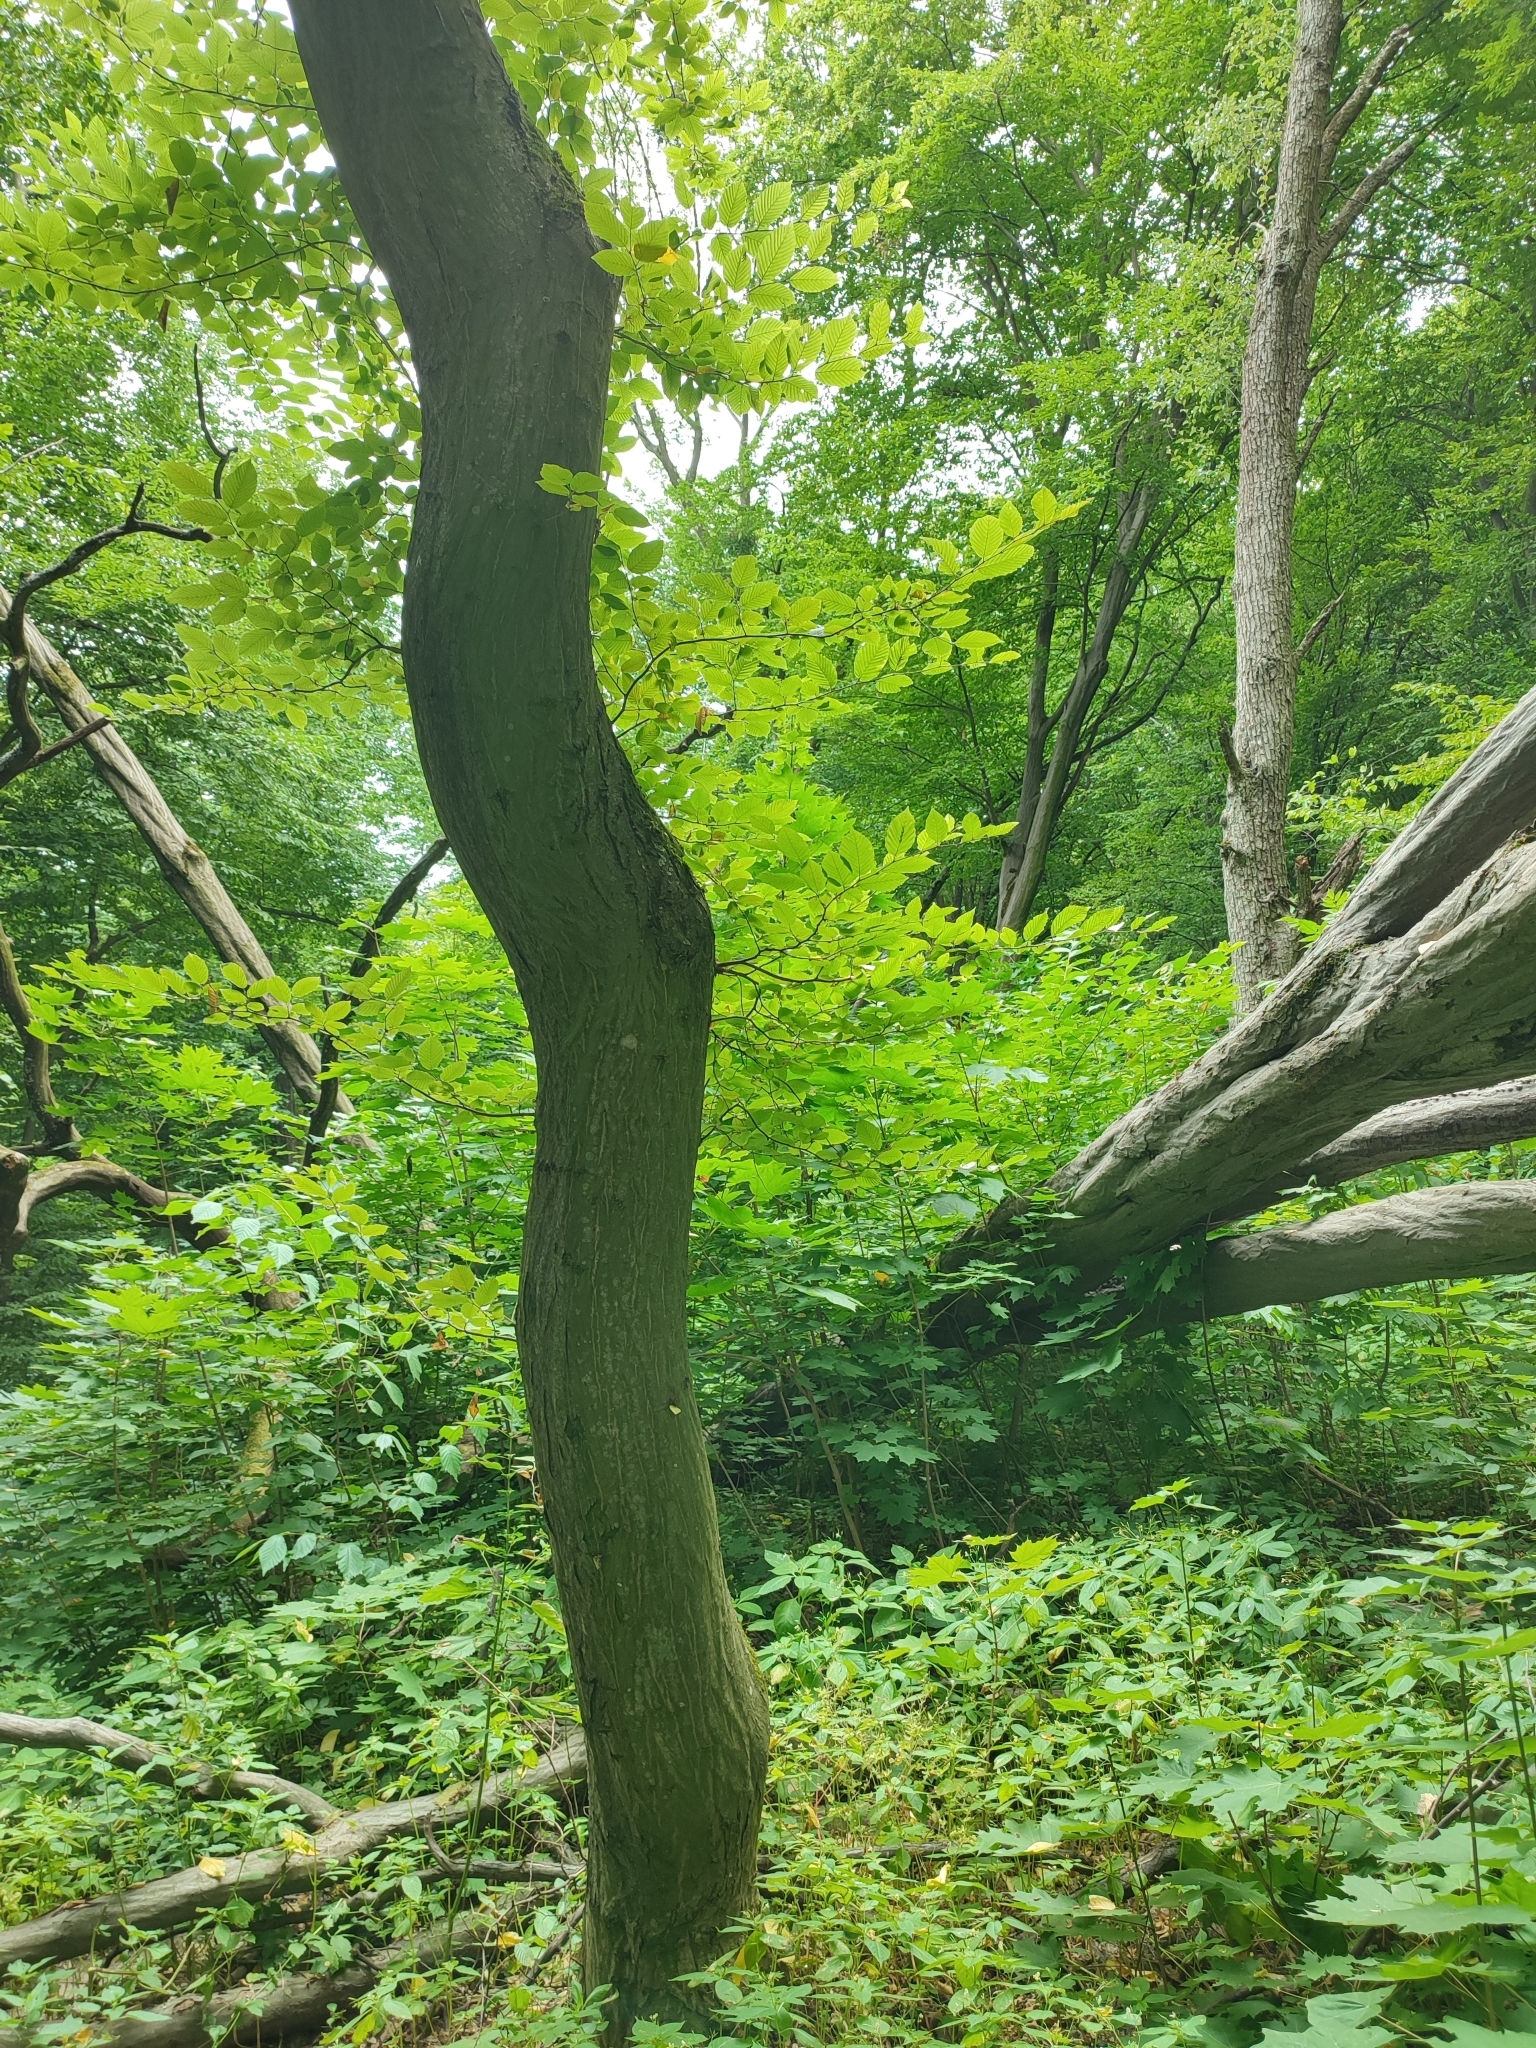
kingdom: Plantae
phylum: Tracheophyta
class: Magnoliopsida
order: Fagales
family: Betulaceae
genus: Carpinus
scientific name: Carpinus betulus
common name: Hornbeam
